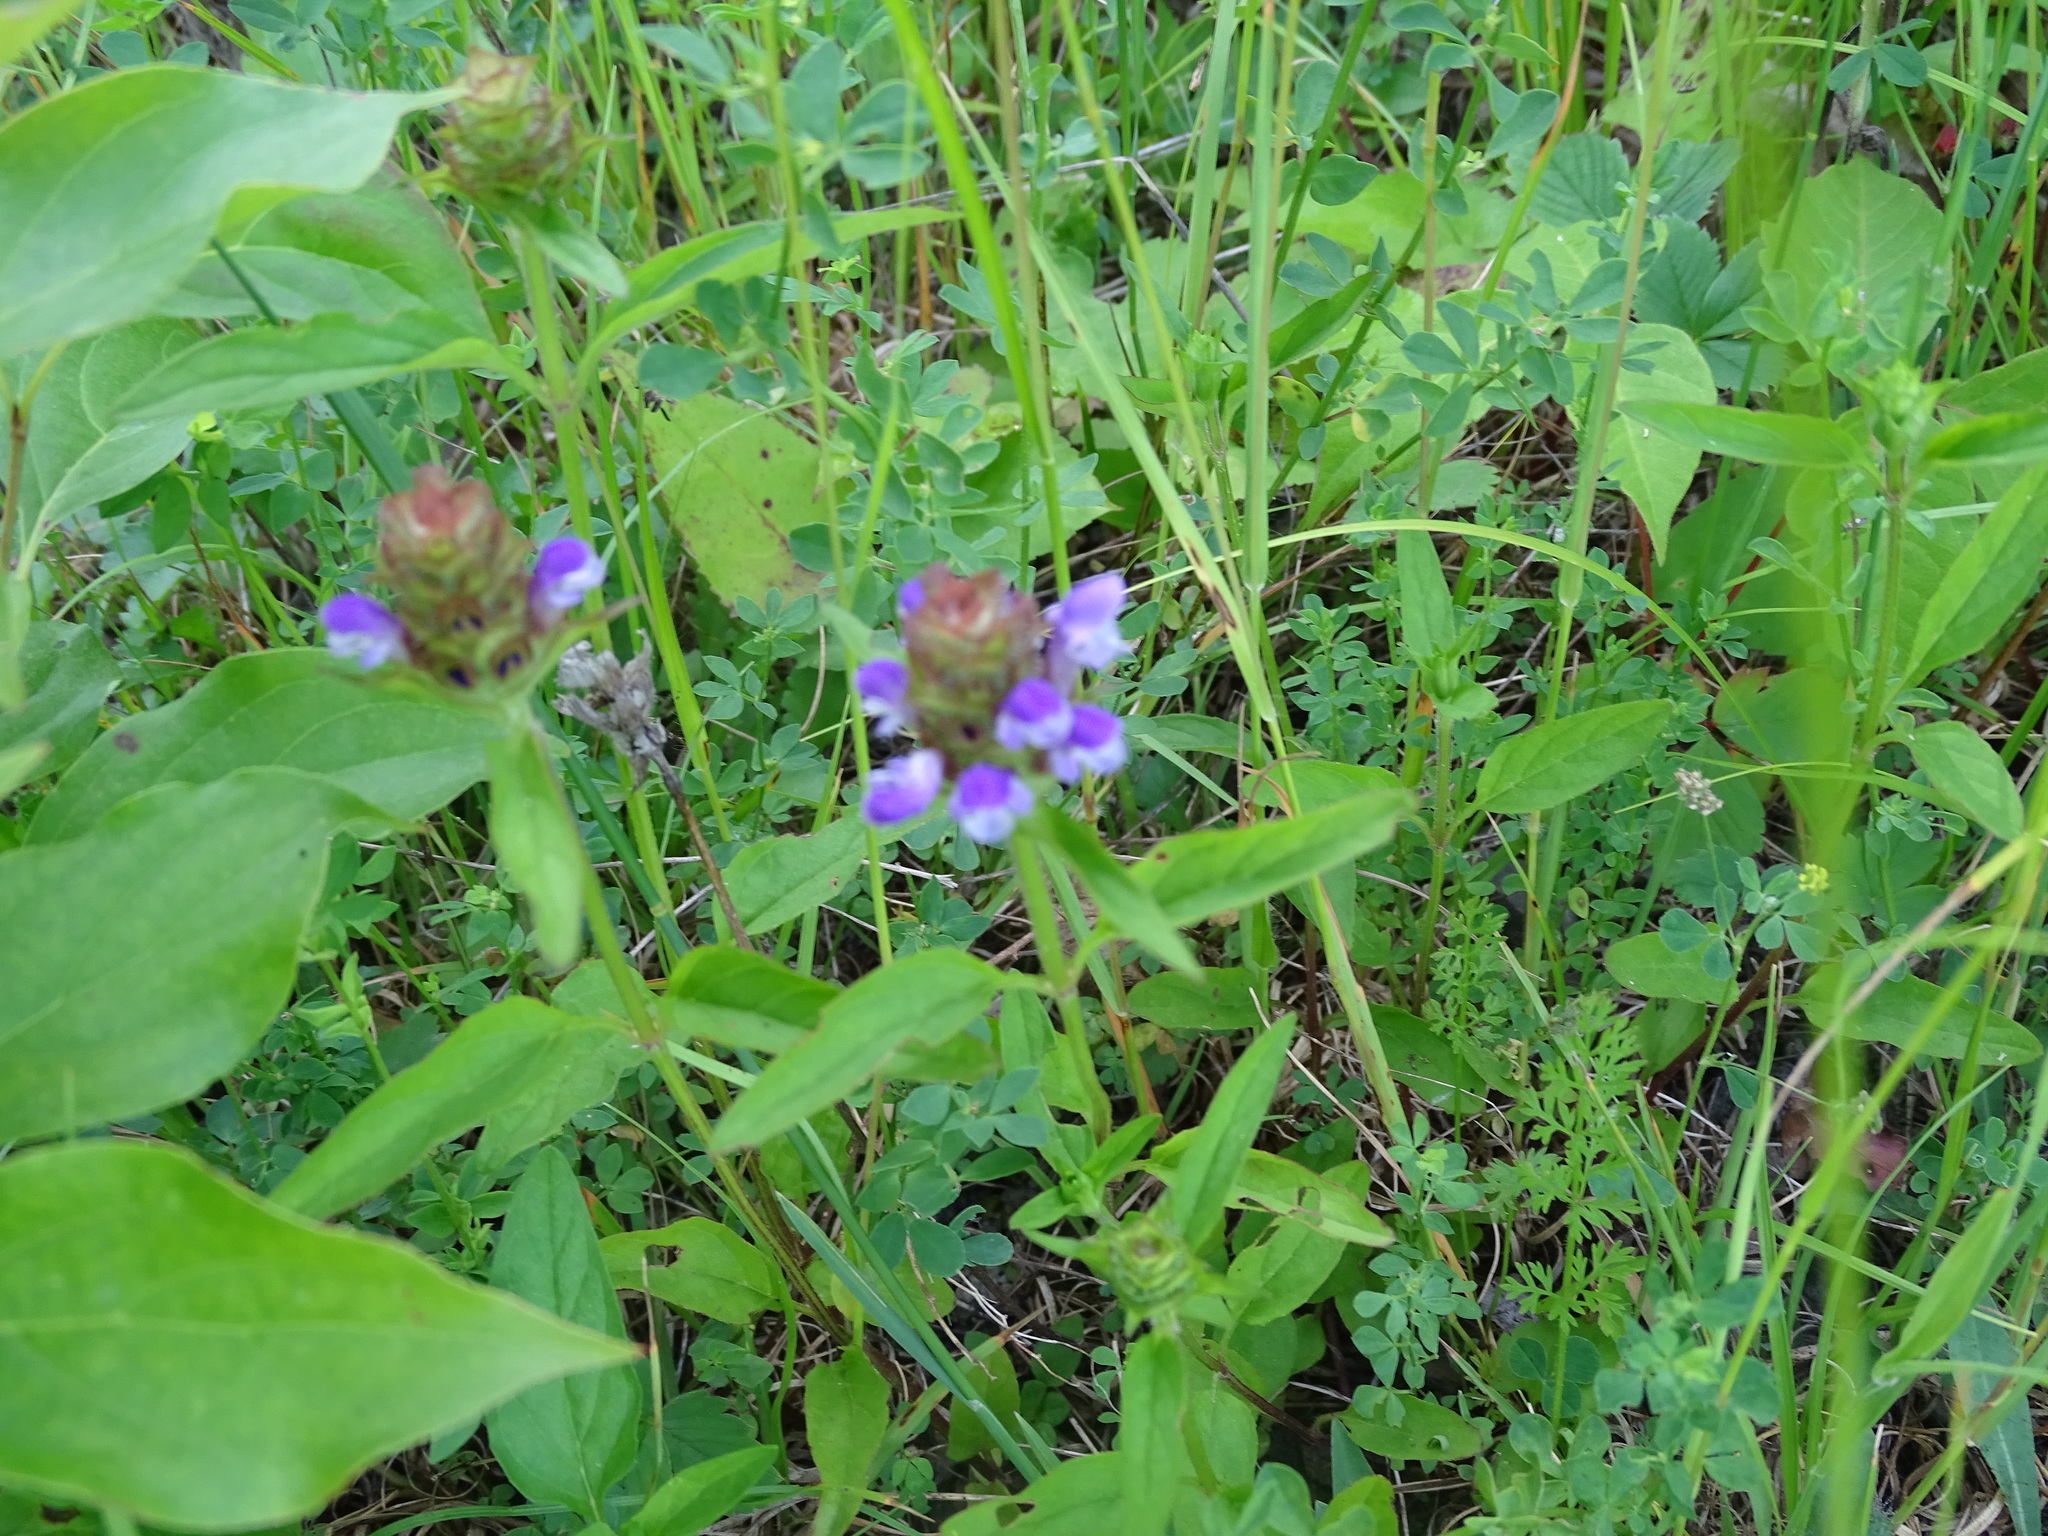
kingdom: Plantae
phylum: Tracheophyta
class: Magnoliopsida
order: Lamiales
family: Lamiaceae
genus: Prunella
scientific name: Prunella vulgaris
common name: Heal-all
